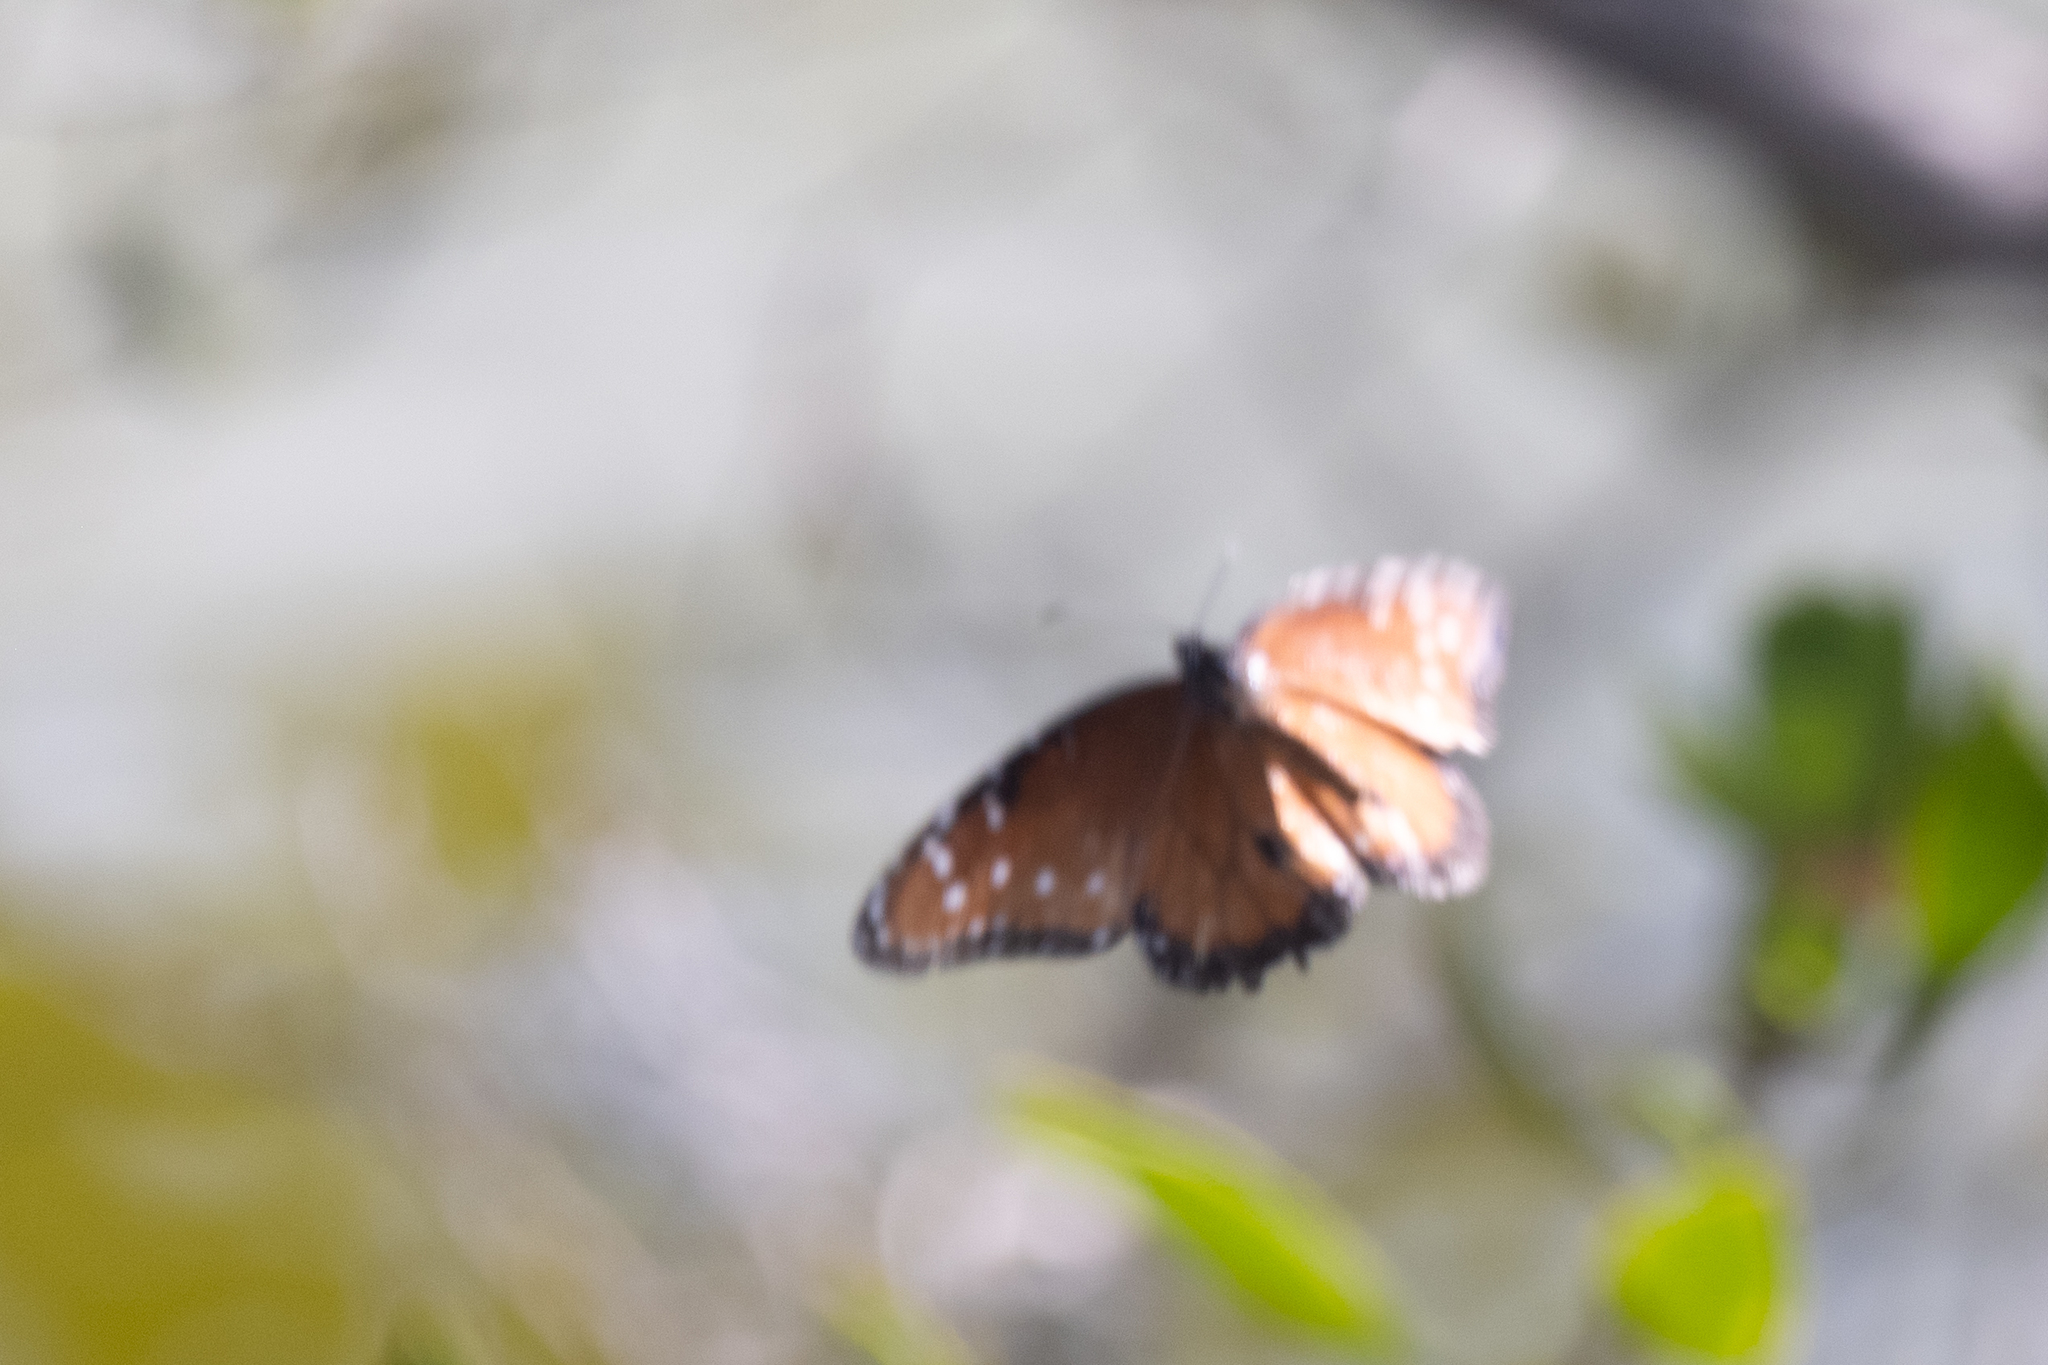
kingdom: Animalia
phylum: Arthropoda
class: Insecta
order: Lepidoptera
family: Nymphalidae
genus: Danaus
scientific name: Danaus gilippus
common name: Queen
